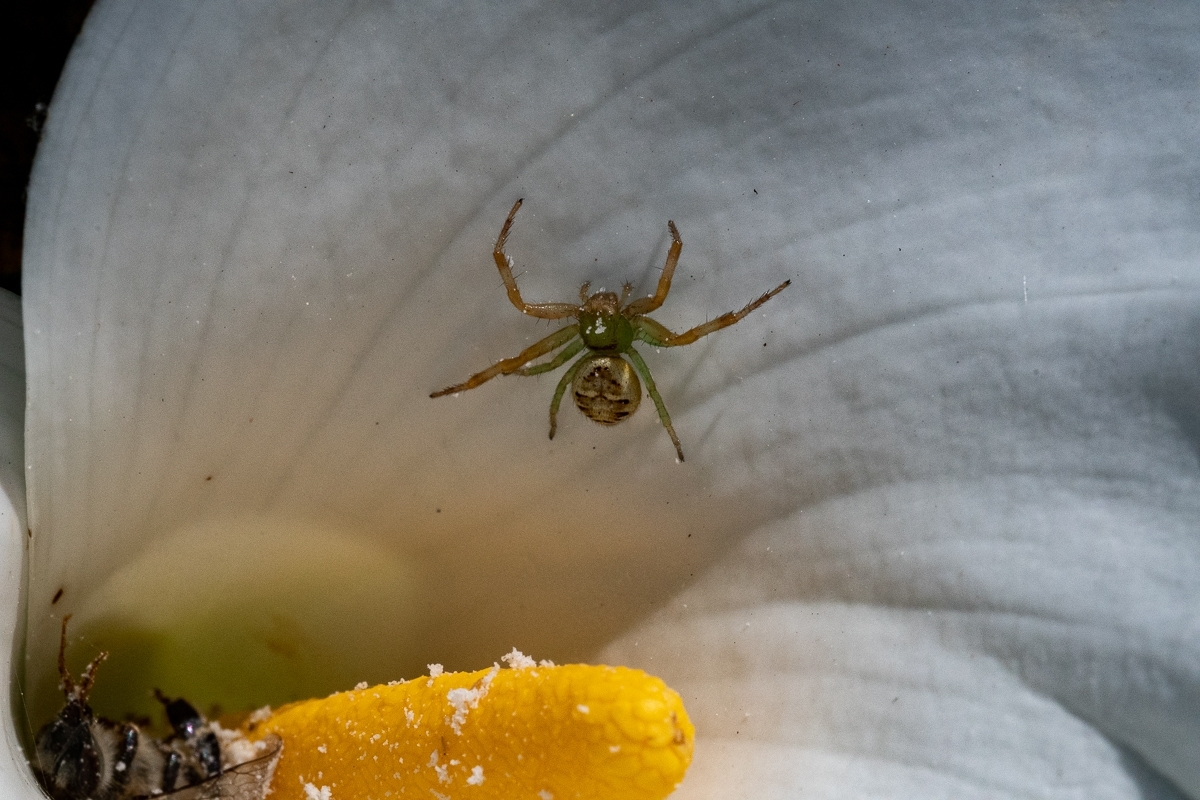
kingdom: Animalia
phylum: Arthropoda
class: Insecta
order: Hymenoptera
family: Apidae
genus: Apis
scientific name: Apis mellifera
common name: Honey bee
